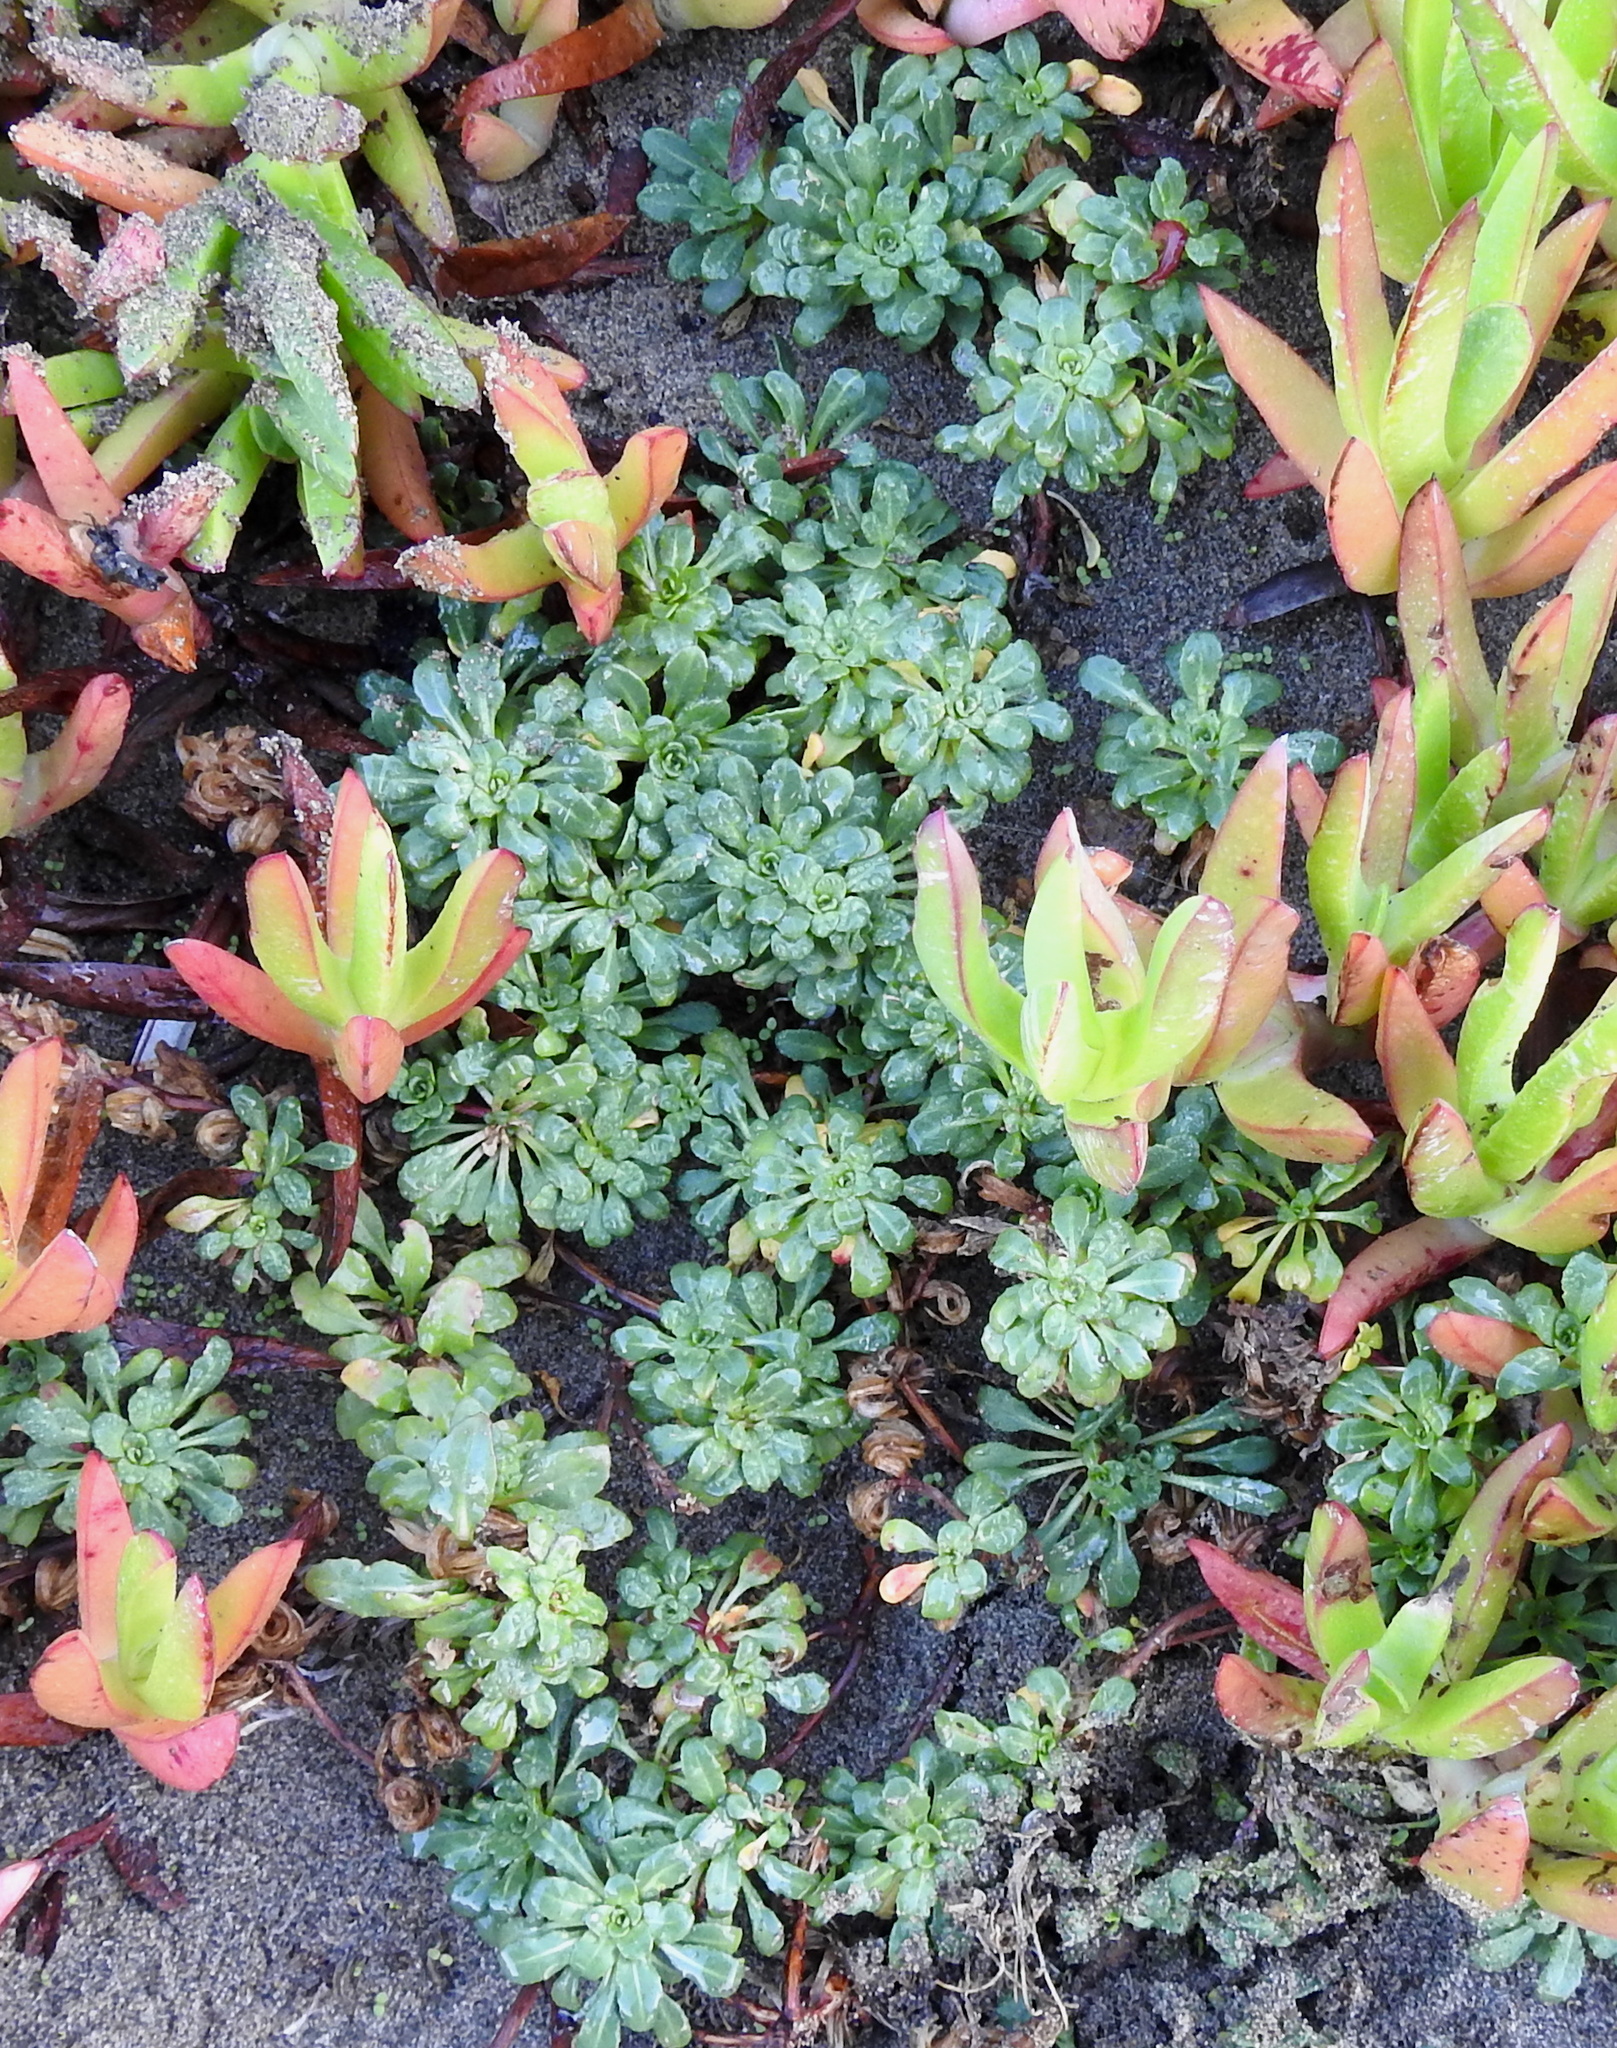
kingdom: Plantae
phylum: Tracheophyta
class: Magnoliopsida
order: Myrtales
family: Onagraceae
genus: Camissoniopsis
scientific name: Camissoniopsis cheiranthifolia
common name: Beach suncup
